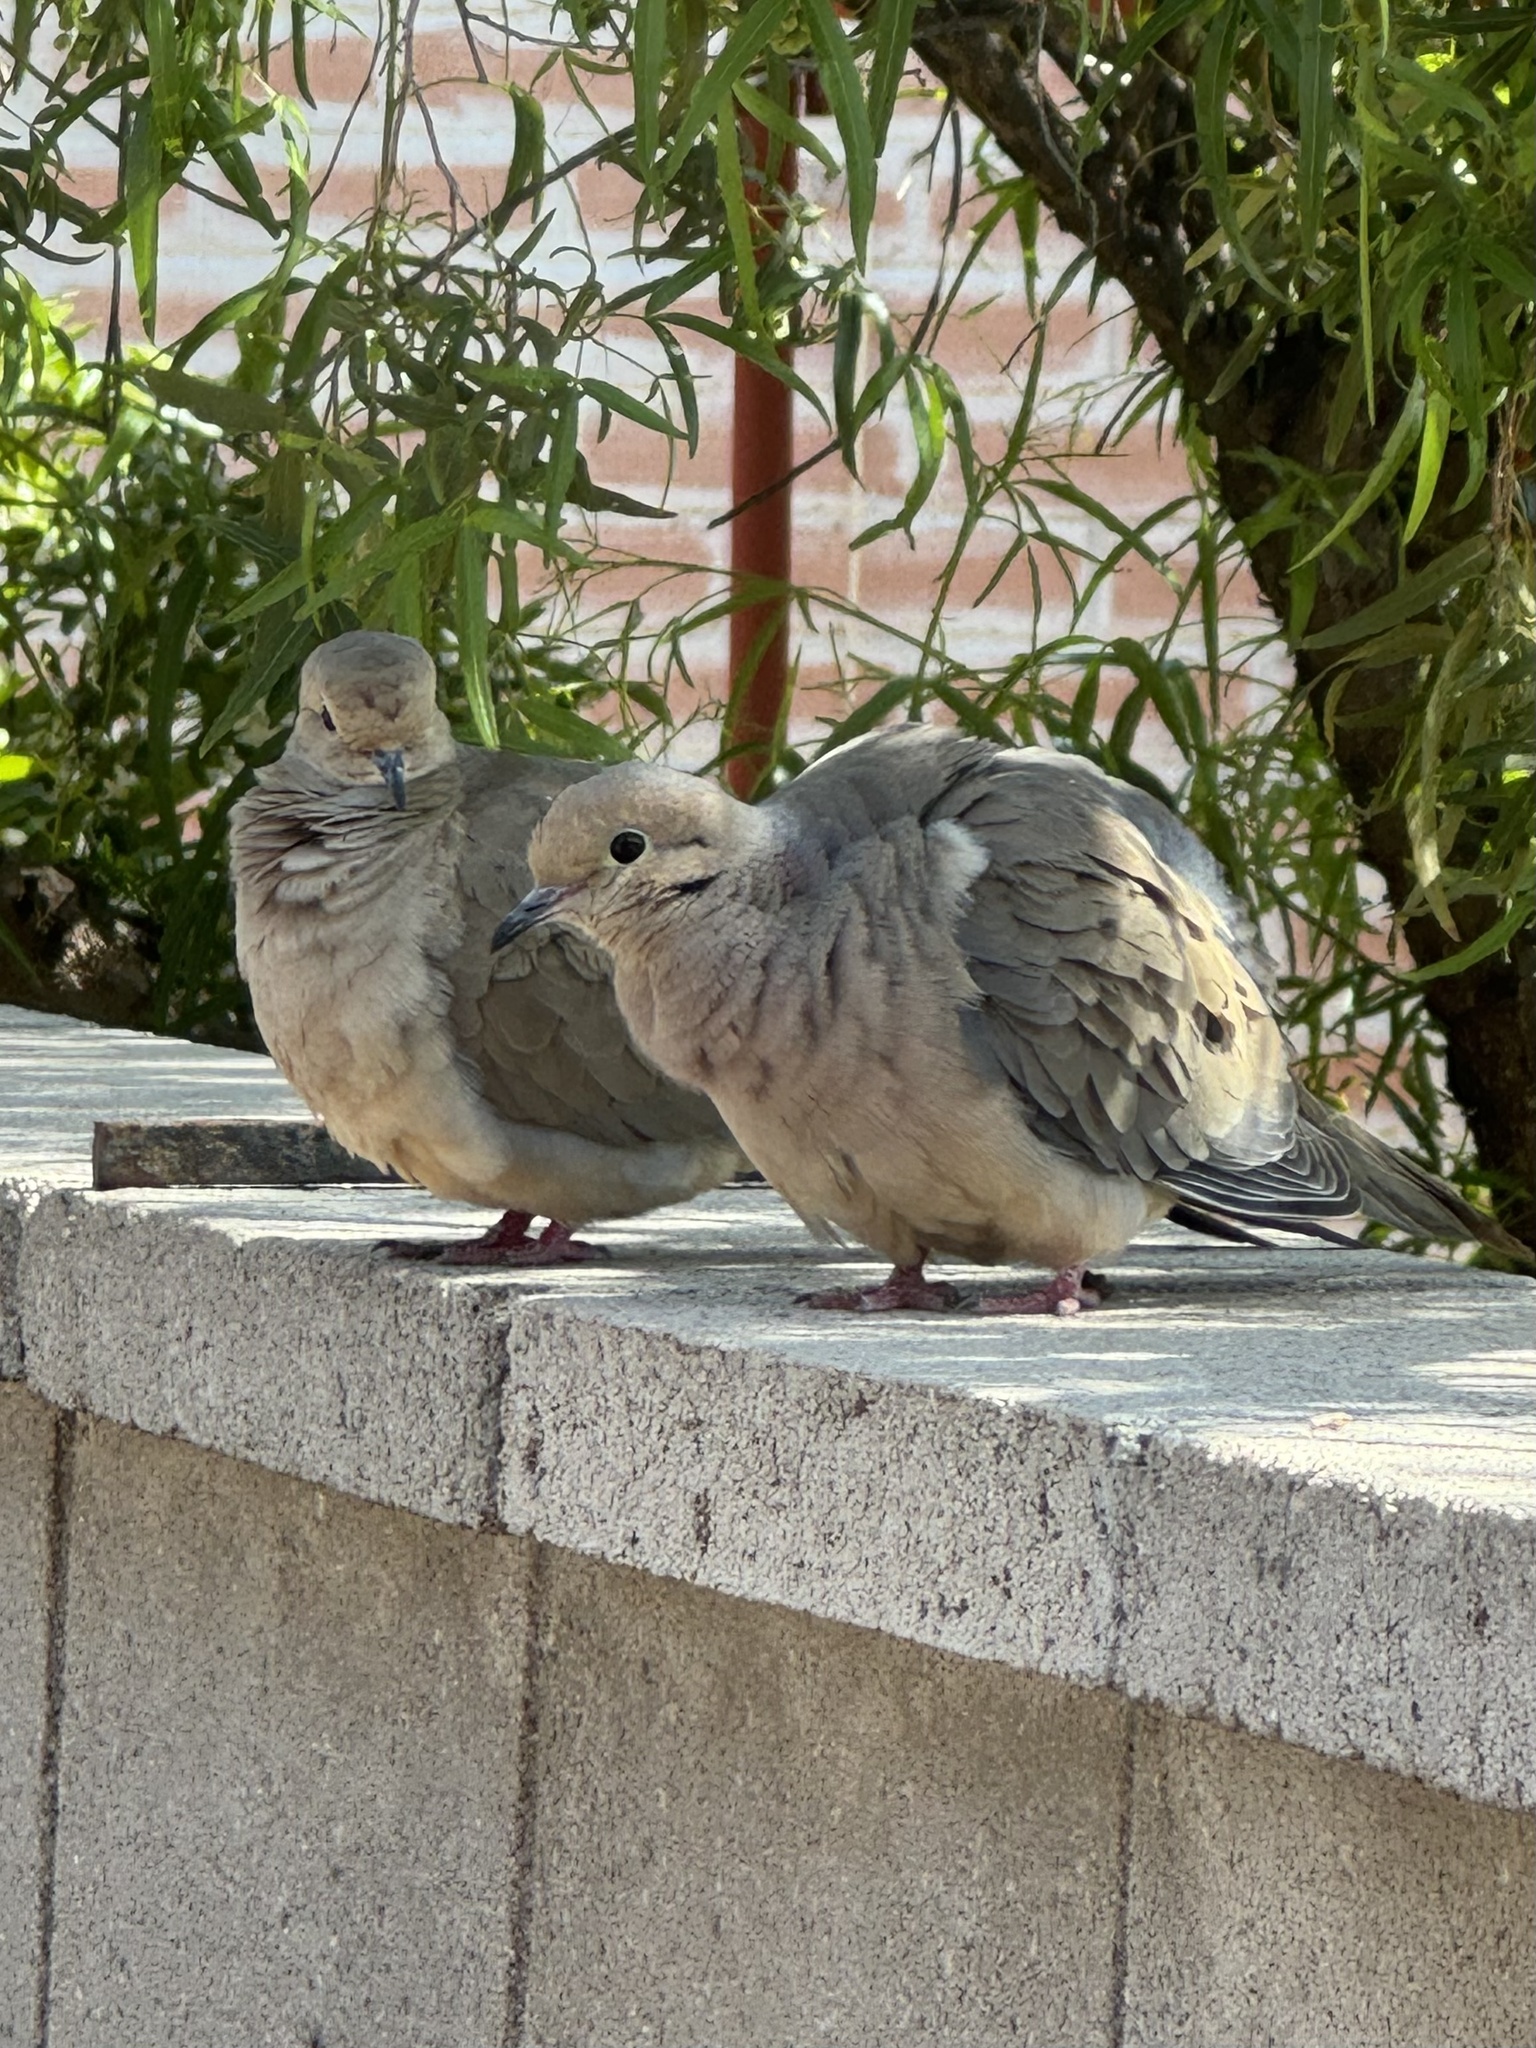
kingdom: Animalia
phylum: Chordata
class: Aves
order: Columbiformes
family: Columbidae
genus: Zenaida
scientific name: Zenaida macroura
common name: Mourning dove
